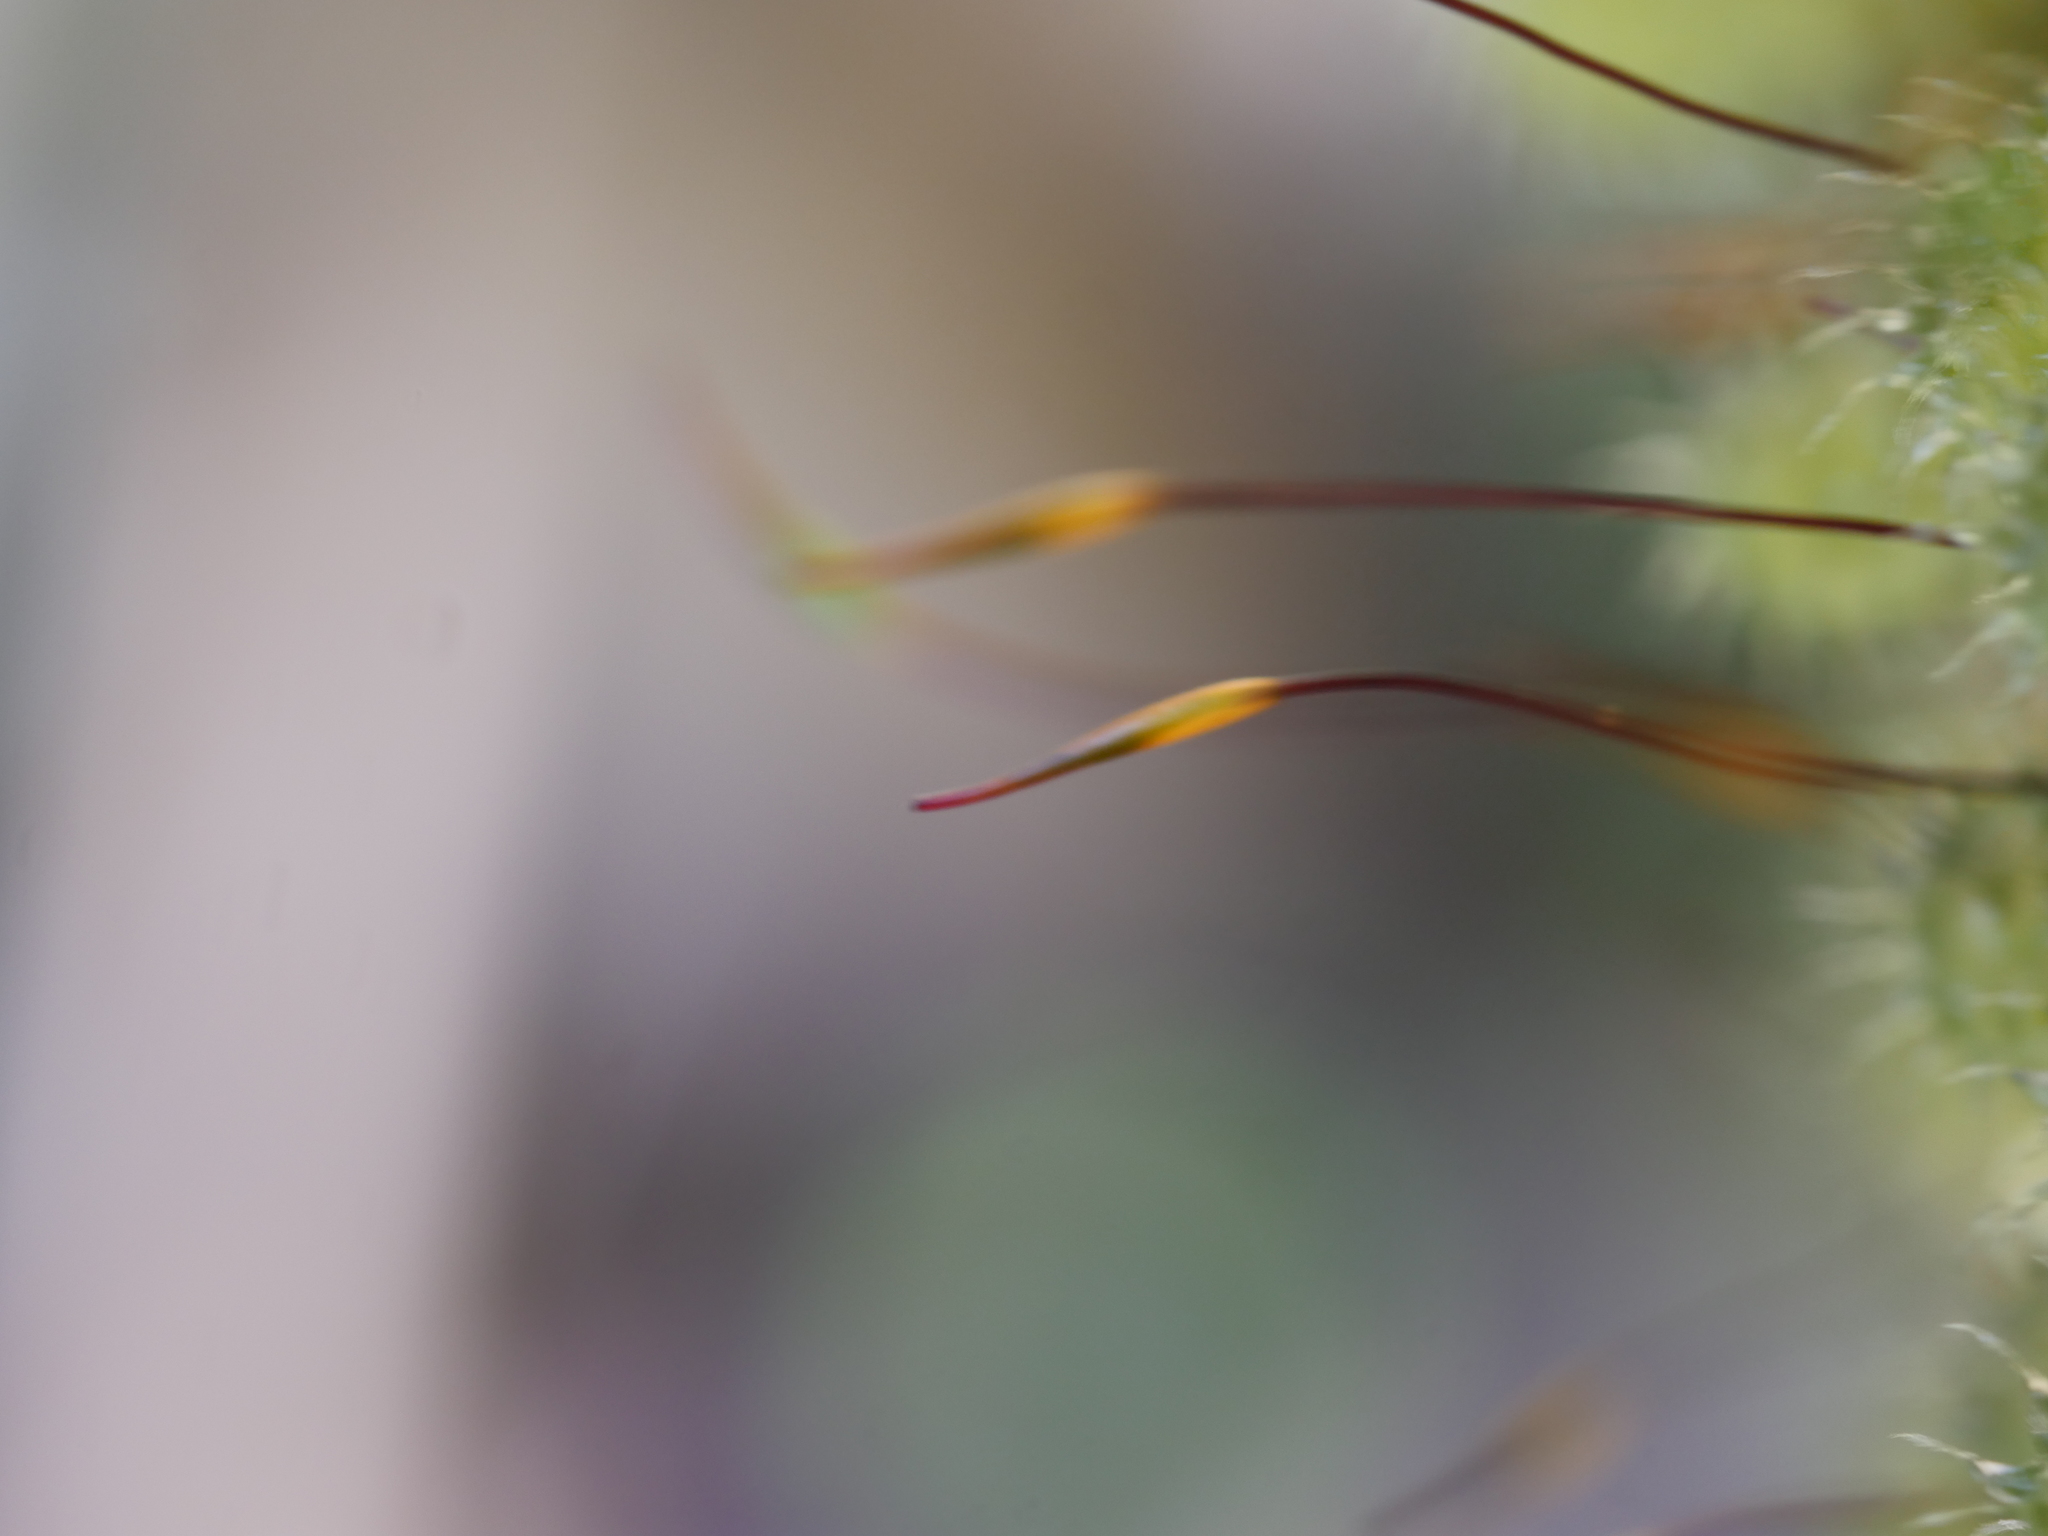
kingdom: Plantae
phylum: Bryophyta
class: Bryopsida
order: Ptychomniales
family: Ptychomniaceae
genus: Ptychomnion
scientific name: Ptychomnion aciculare
